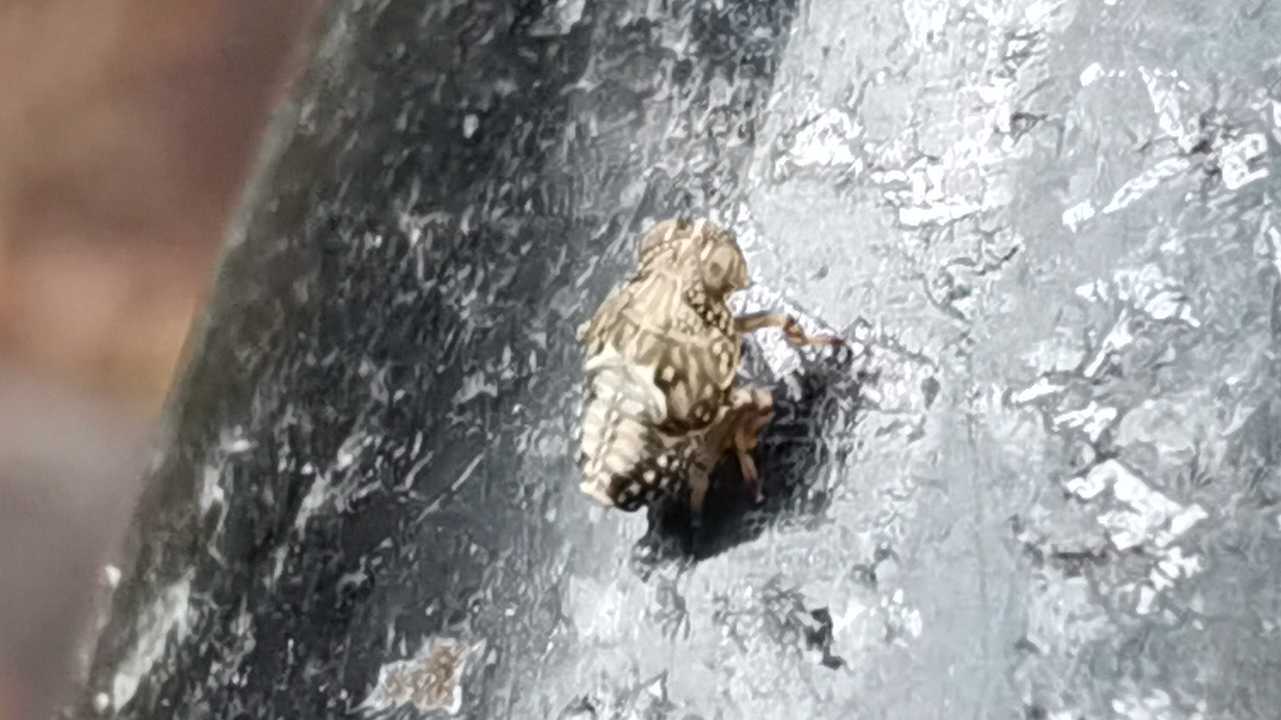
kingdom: Animalia
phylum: Arthropoda
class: Insecta
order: Hemiptera
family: Issidae
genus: Issus
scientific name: Issus
